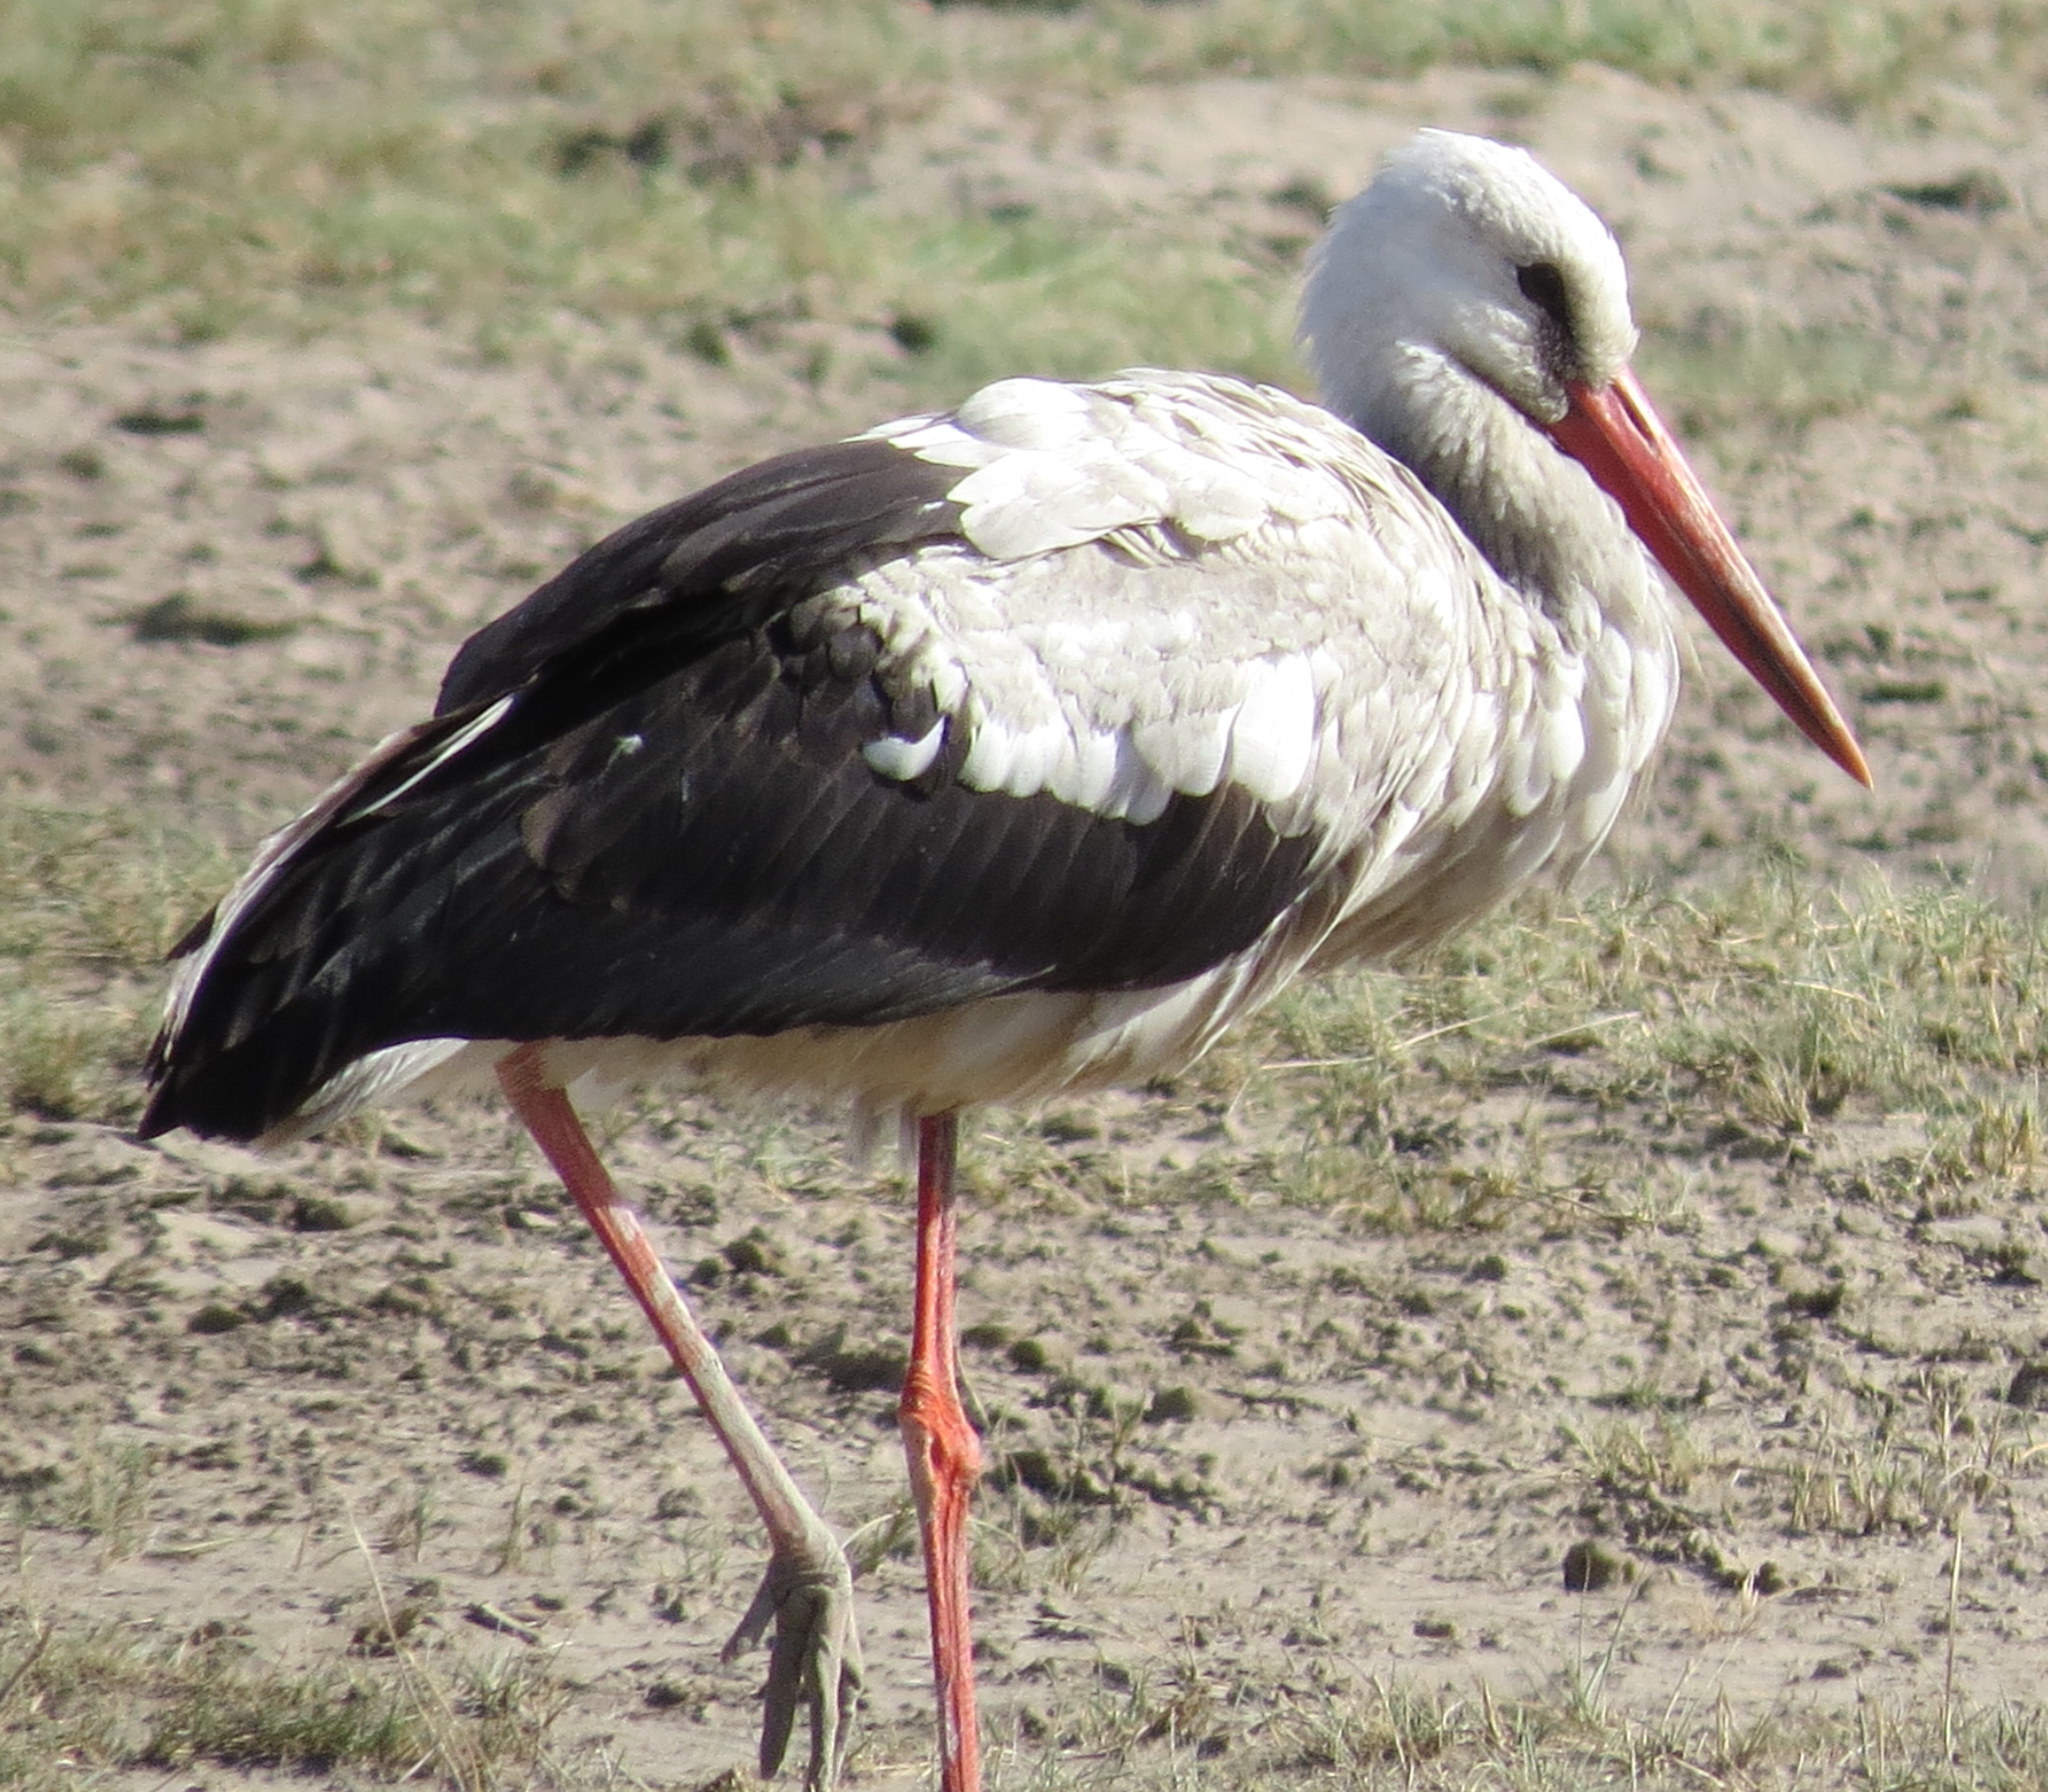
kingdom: Animalia
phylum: Chordata
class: Aves
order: Ciconiiformes
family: Ciconiidae
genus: Ciconia
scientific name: Ciconia ciconia
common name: White stork
